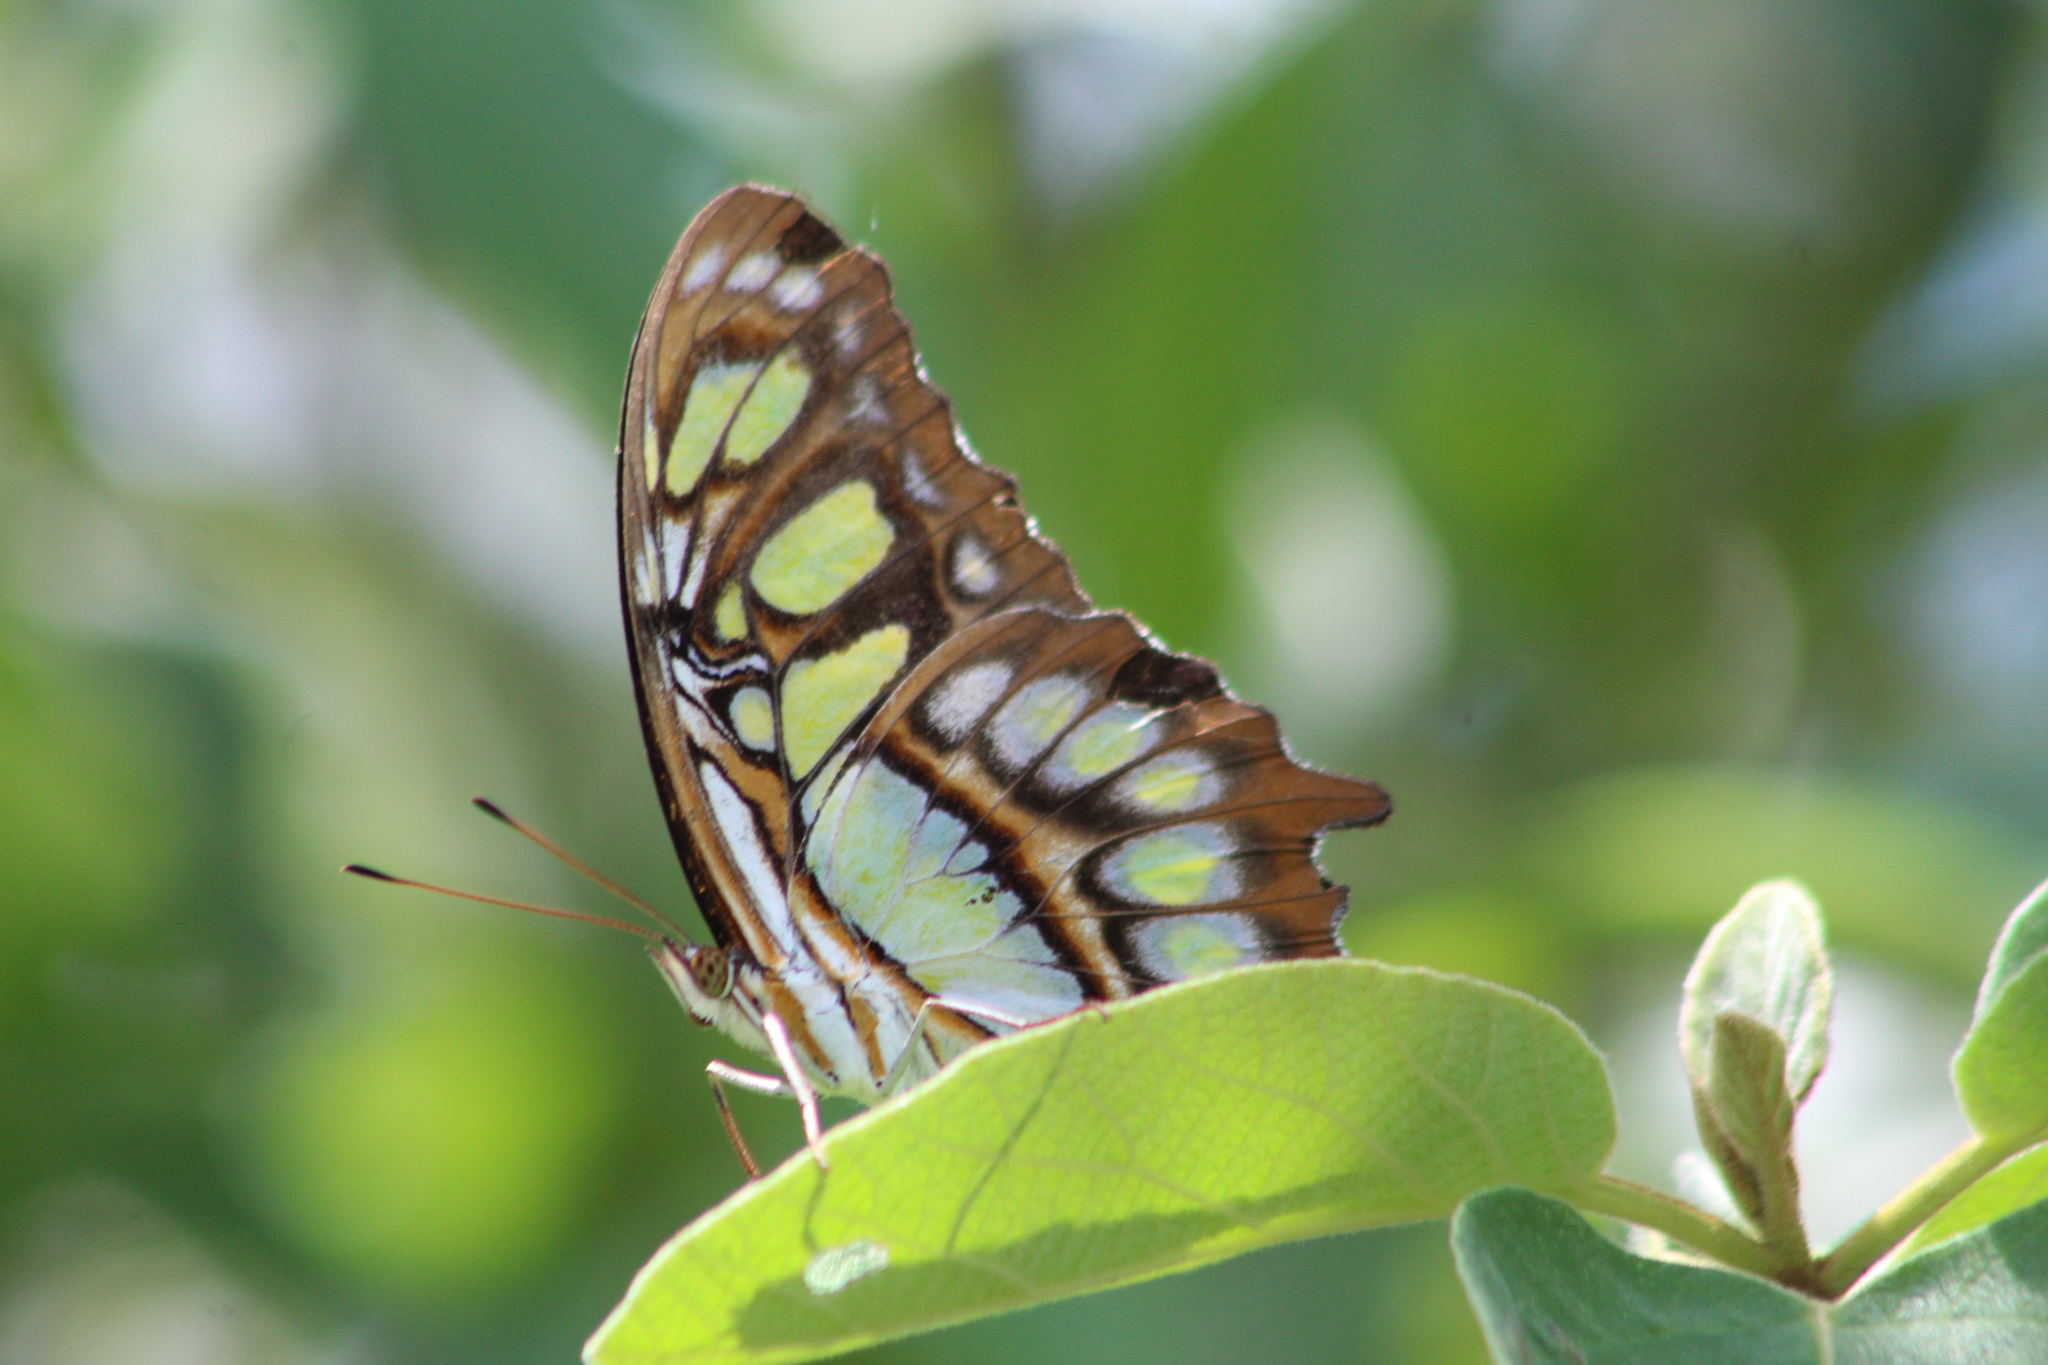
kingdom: Animalia
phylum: Arthropoda
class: Insecta
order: Lepidoptera
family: Nymphalidae
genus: Siproeta
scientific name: Siproeta stelenes
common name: Malachite
